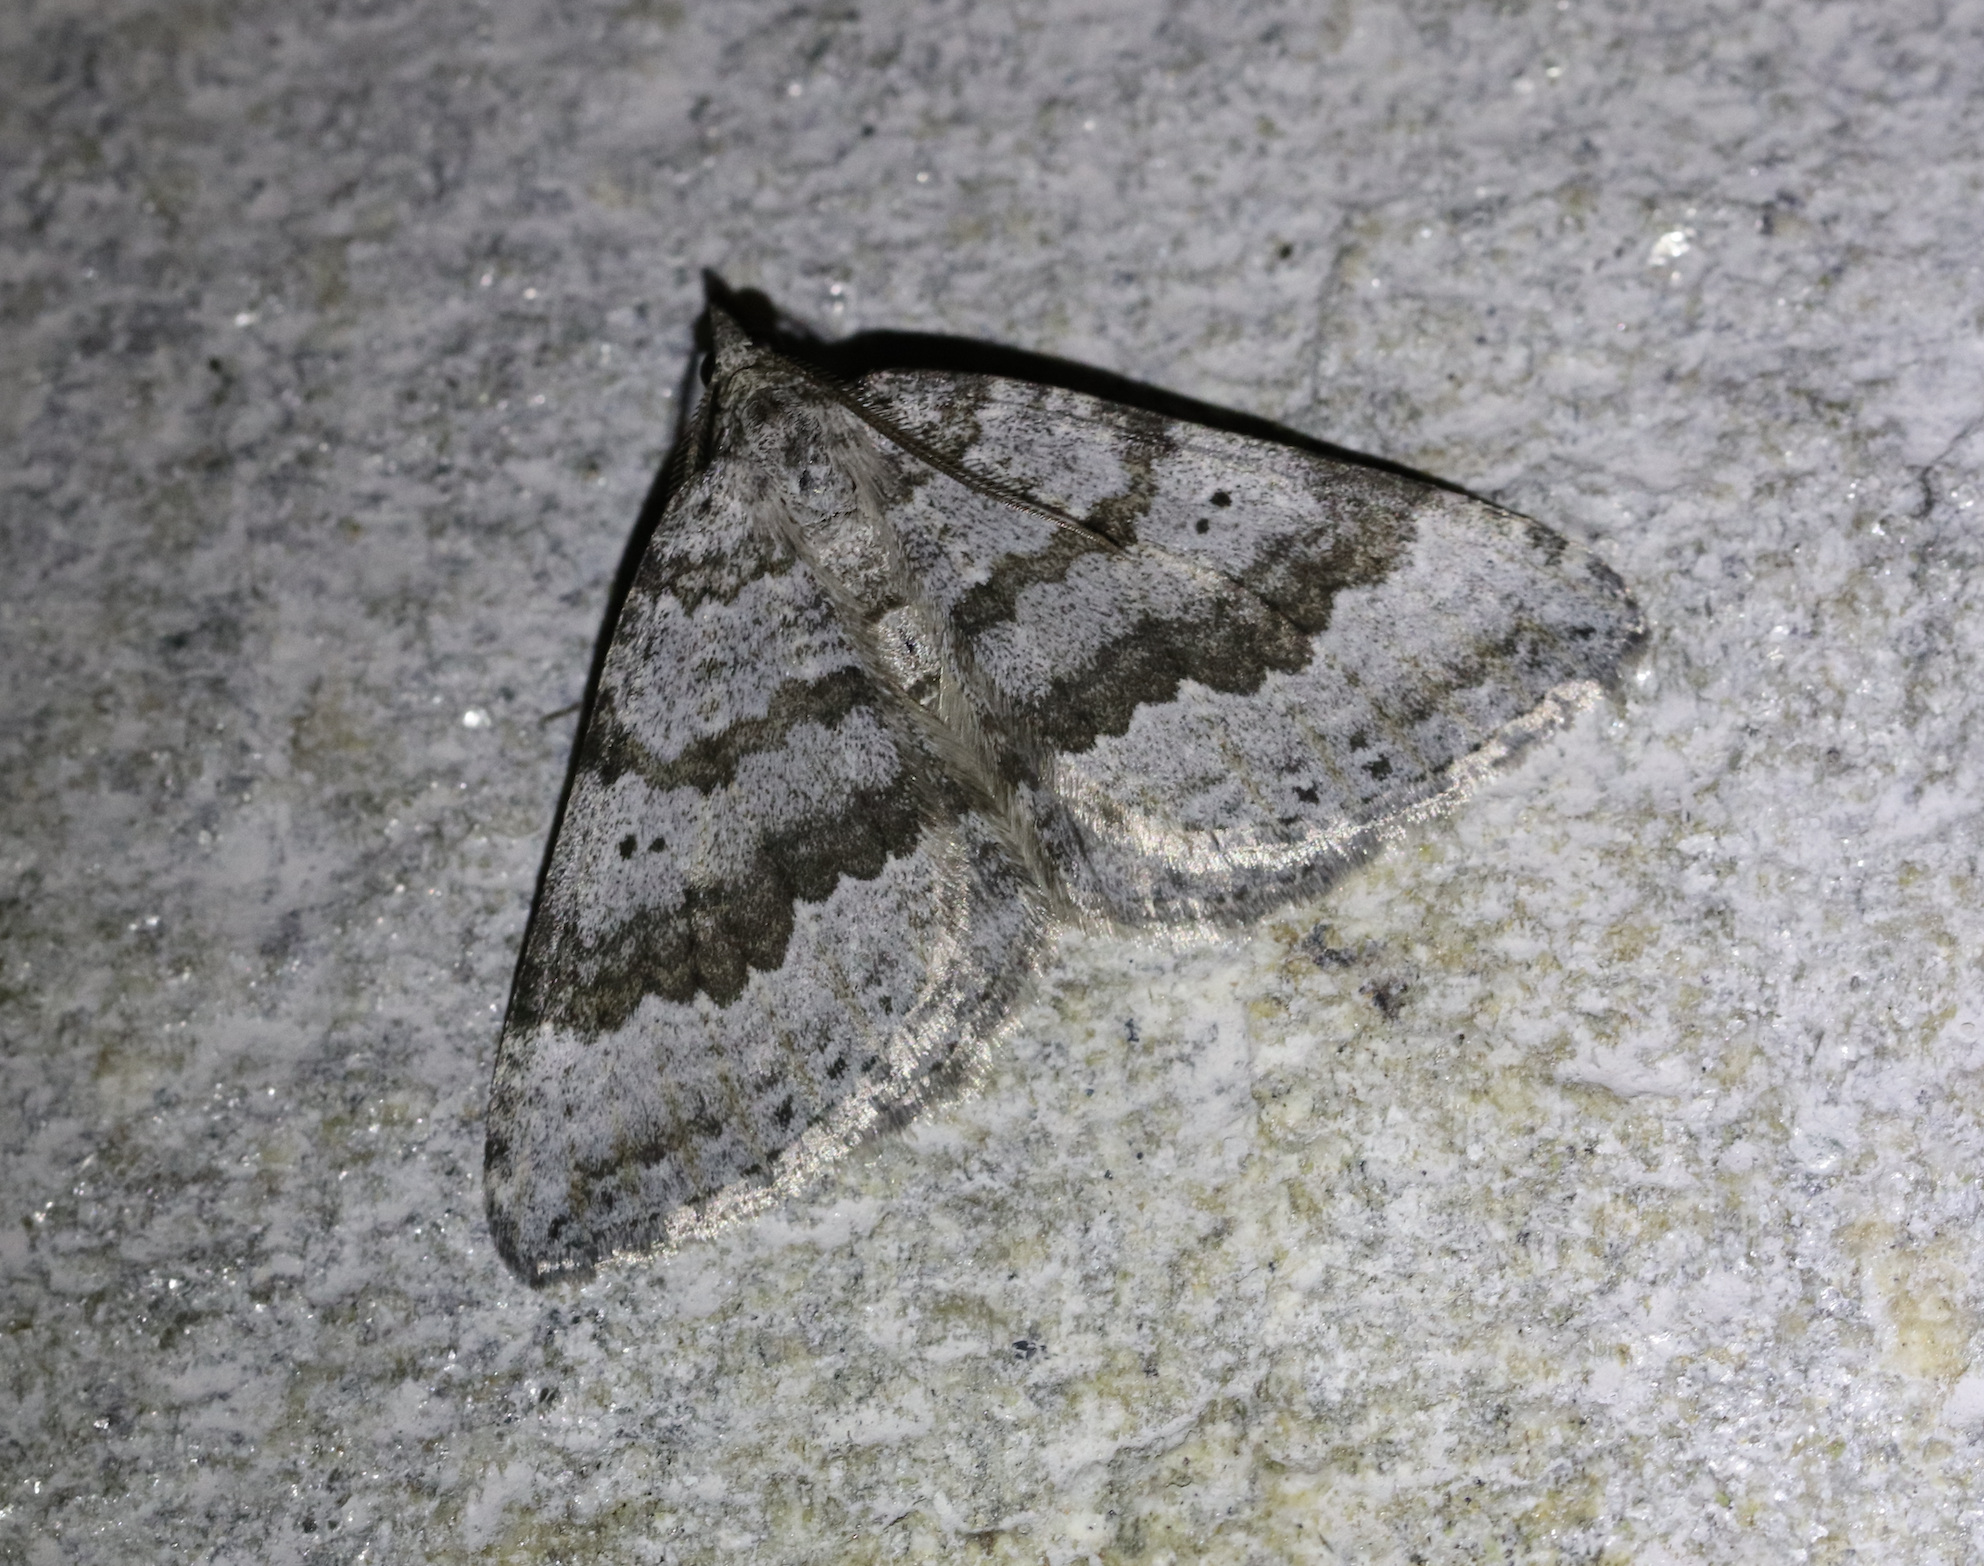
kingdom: Animalia
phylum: Arthropoda
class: Insecta
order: Lepidoptera
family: Geometridae
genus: Scotopteryx
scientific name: Scotopteryx bipunctaria
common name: Chalk carpet
